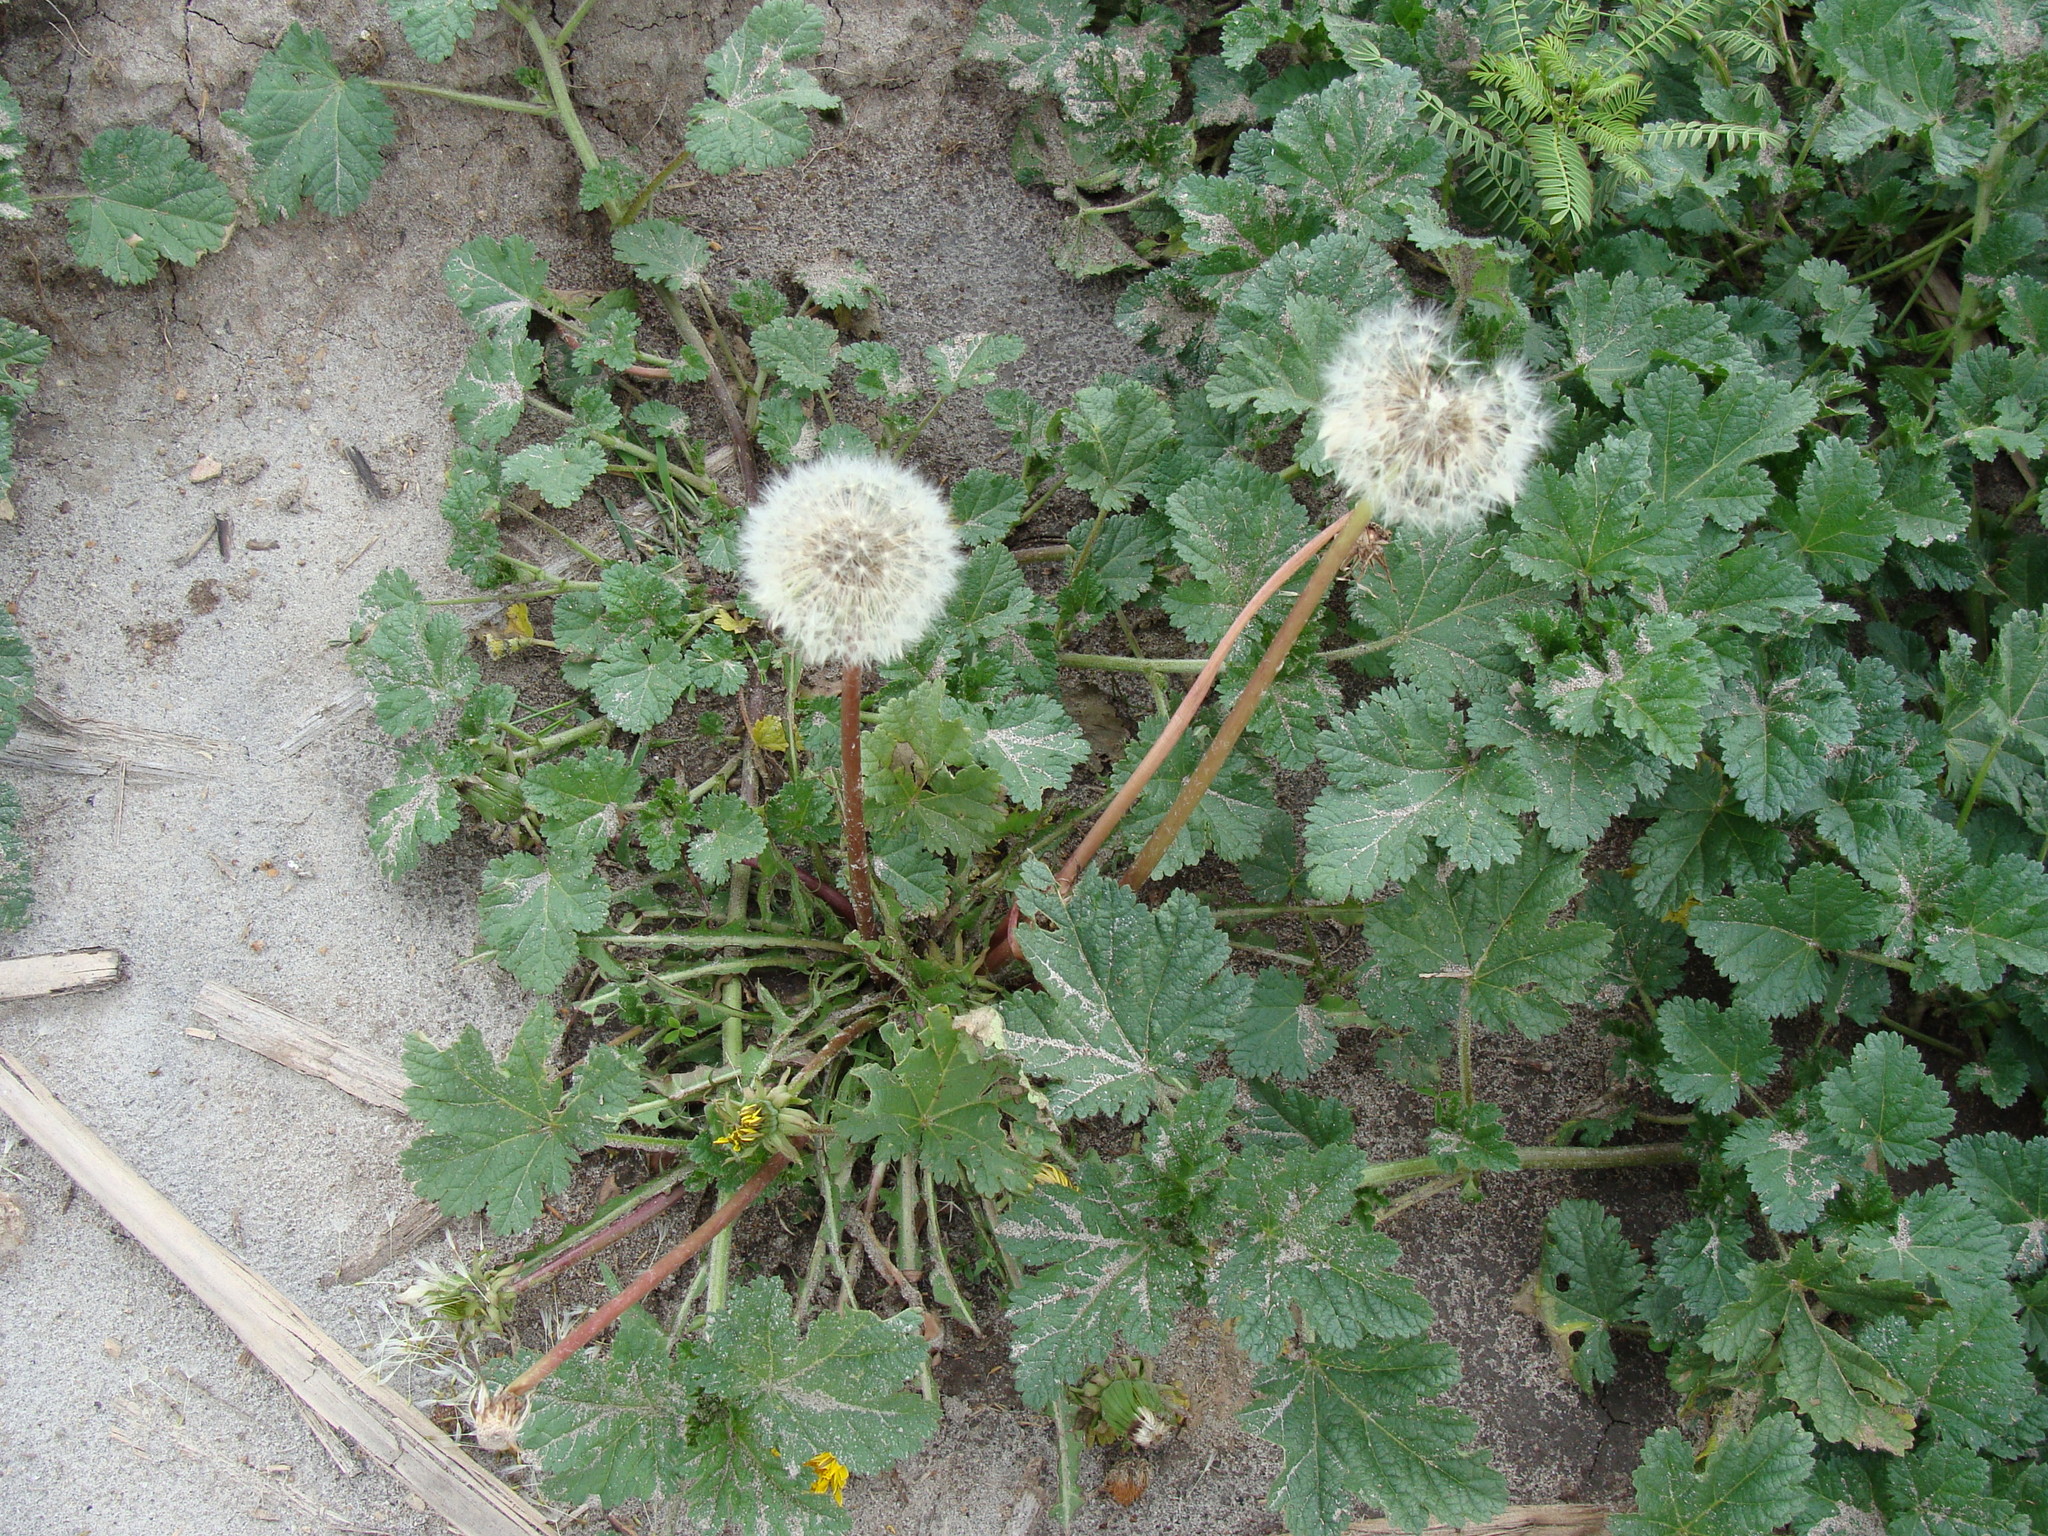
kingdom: Plantae
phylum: Tracheophyta
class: Magnoliopsida
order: Asterales
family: Asteraceae
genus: Taraxacum
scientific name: Taraxacum officinale
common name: Common dandelion
